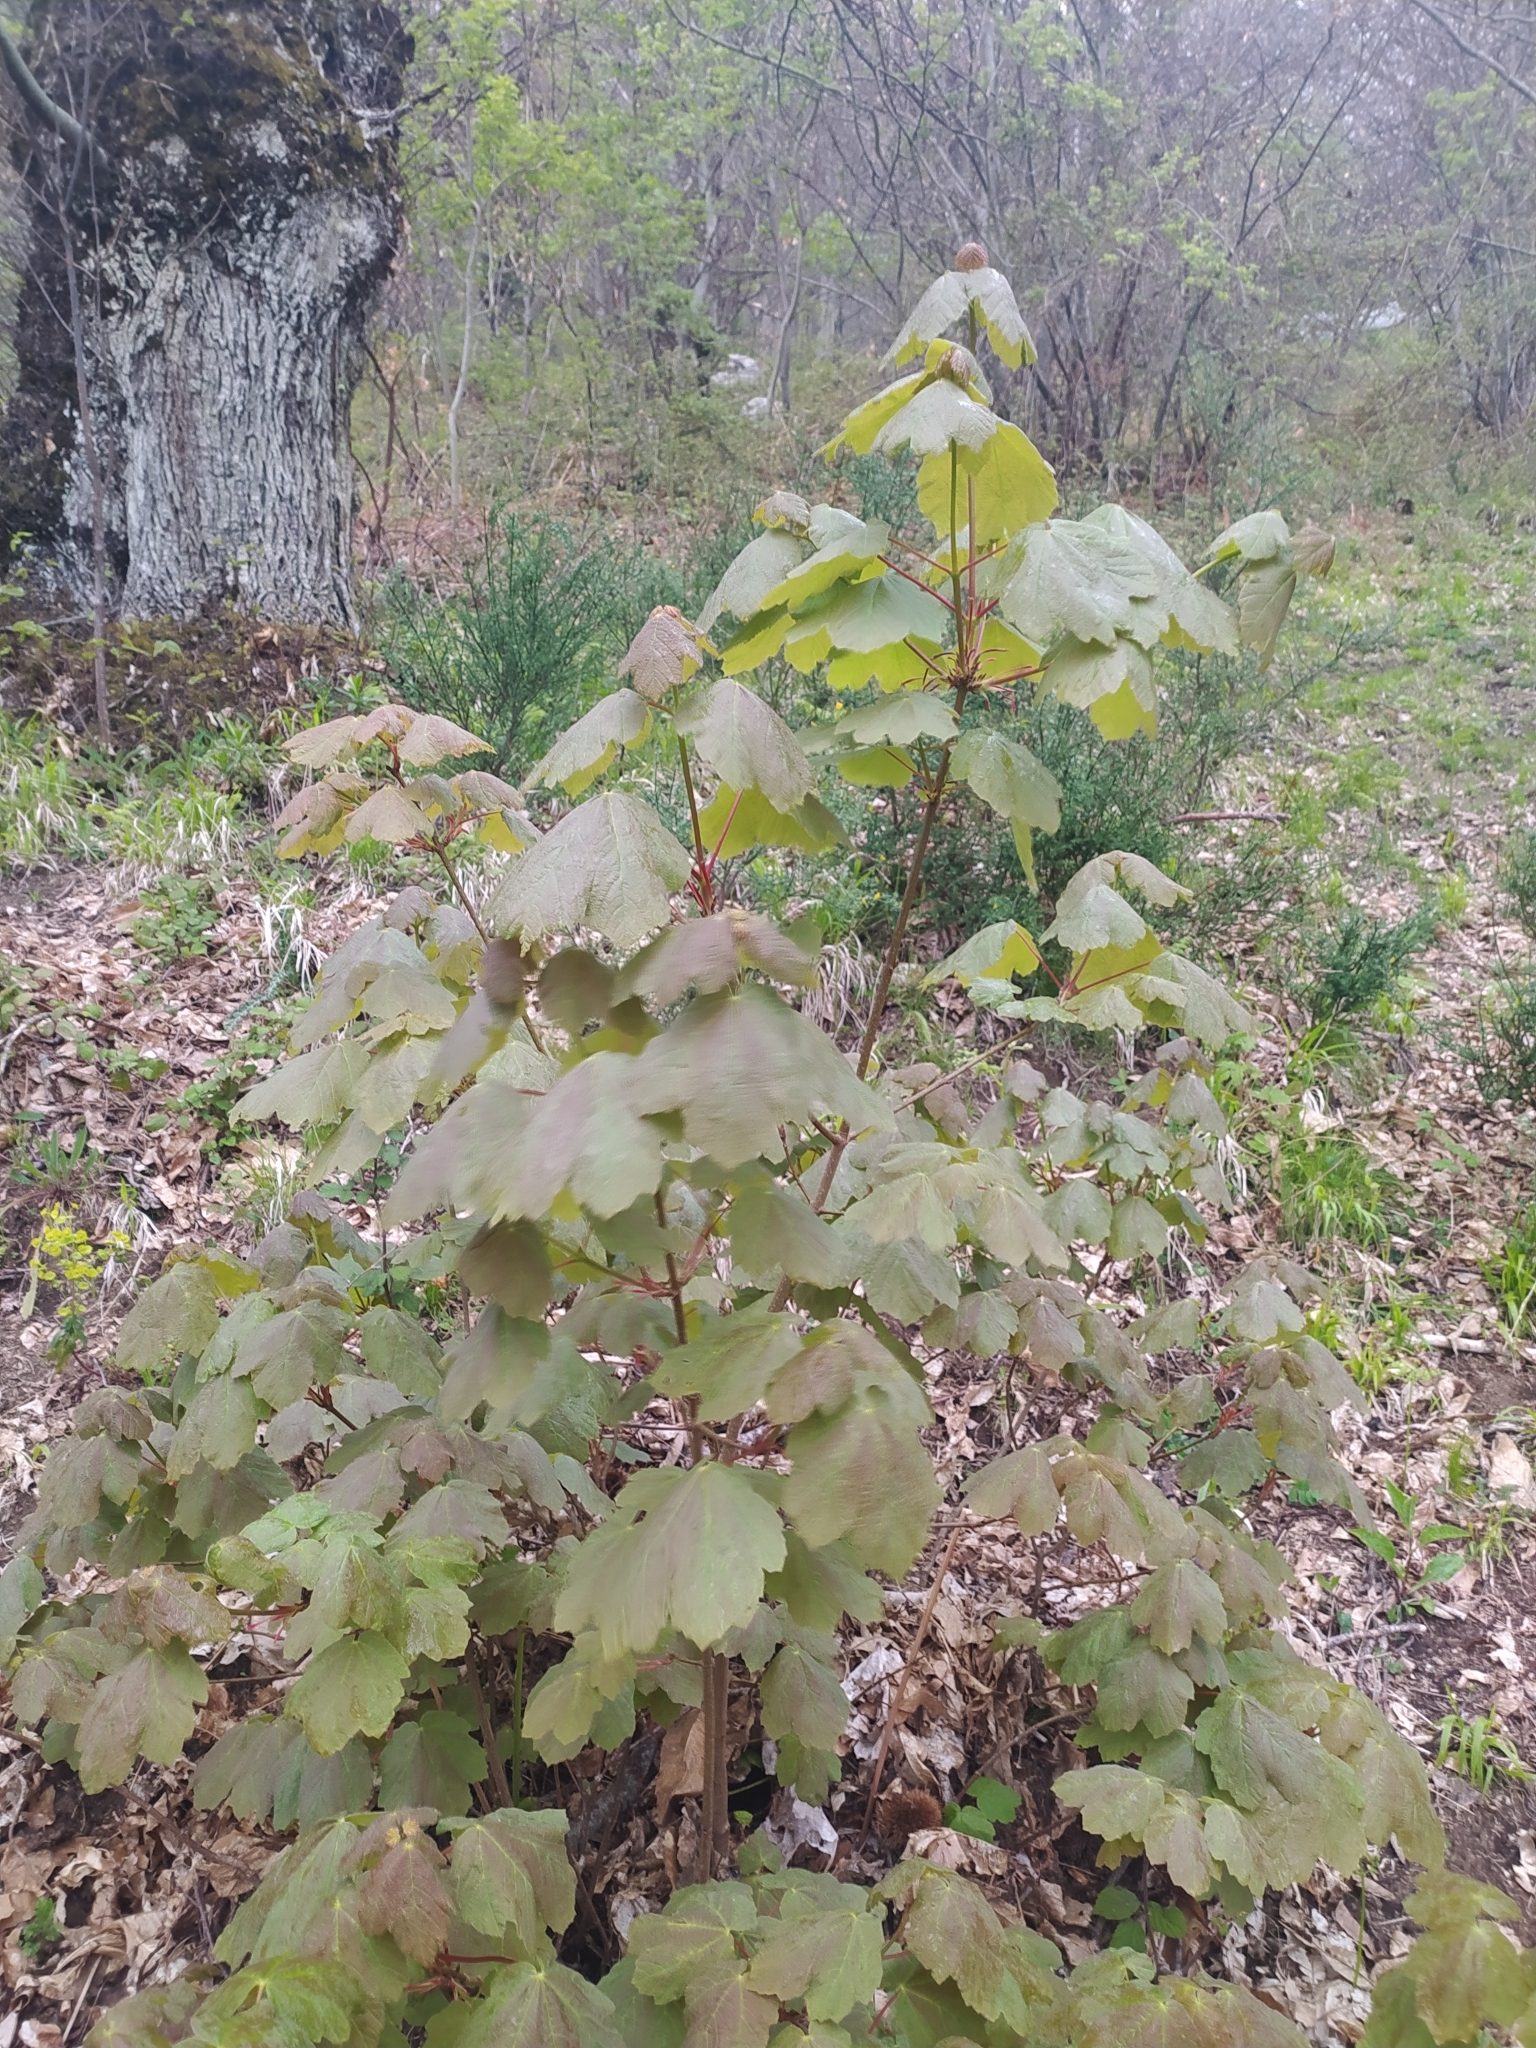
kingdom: Plantae
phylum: Tracheophyta
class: Magnoliopsida
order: Sapindales
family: Sapindaceae
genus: Acer
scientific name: Acer opalus
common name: Italian maple
